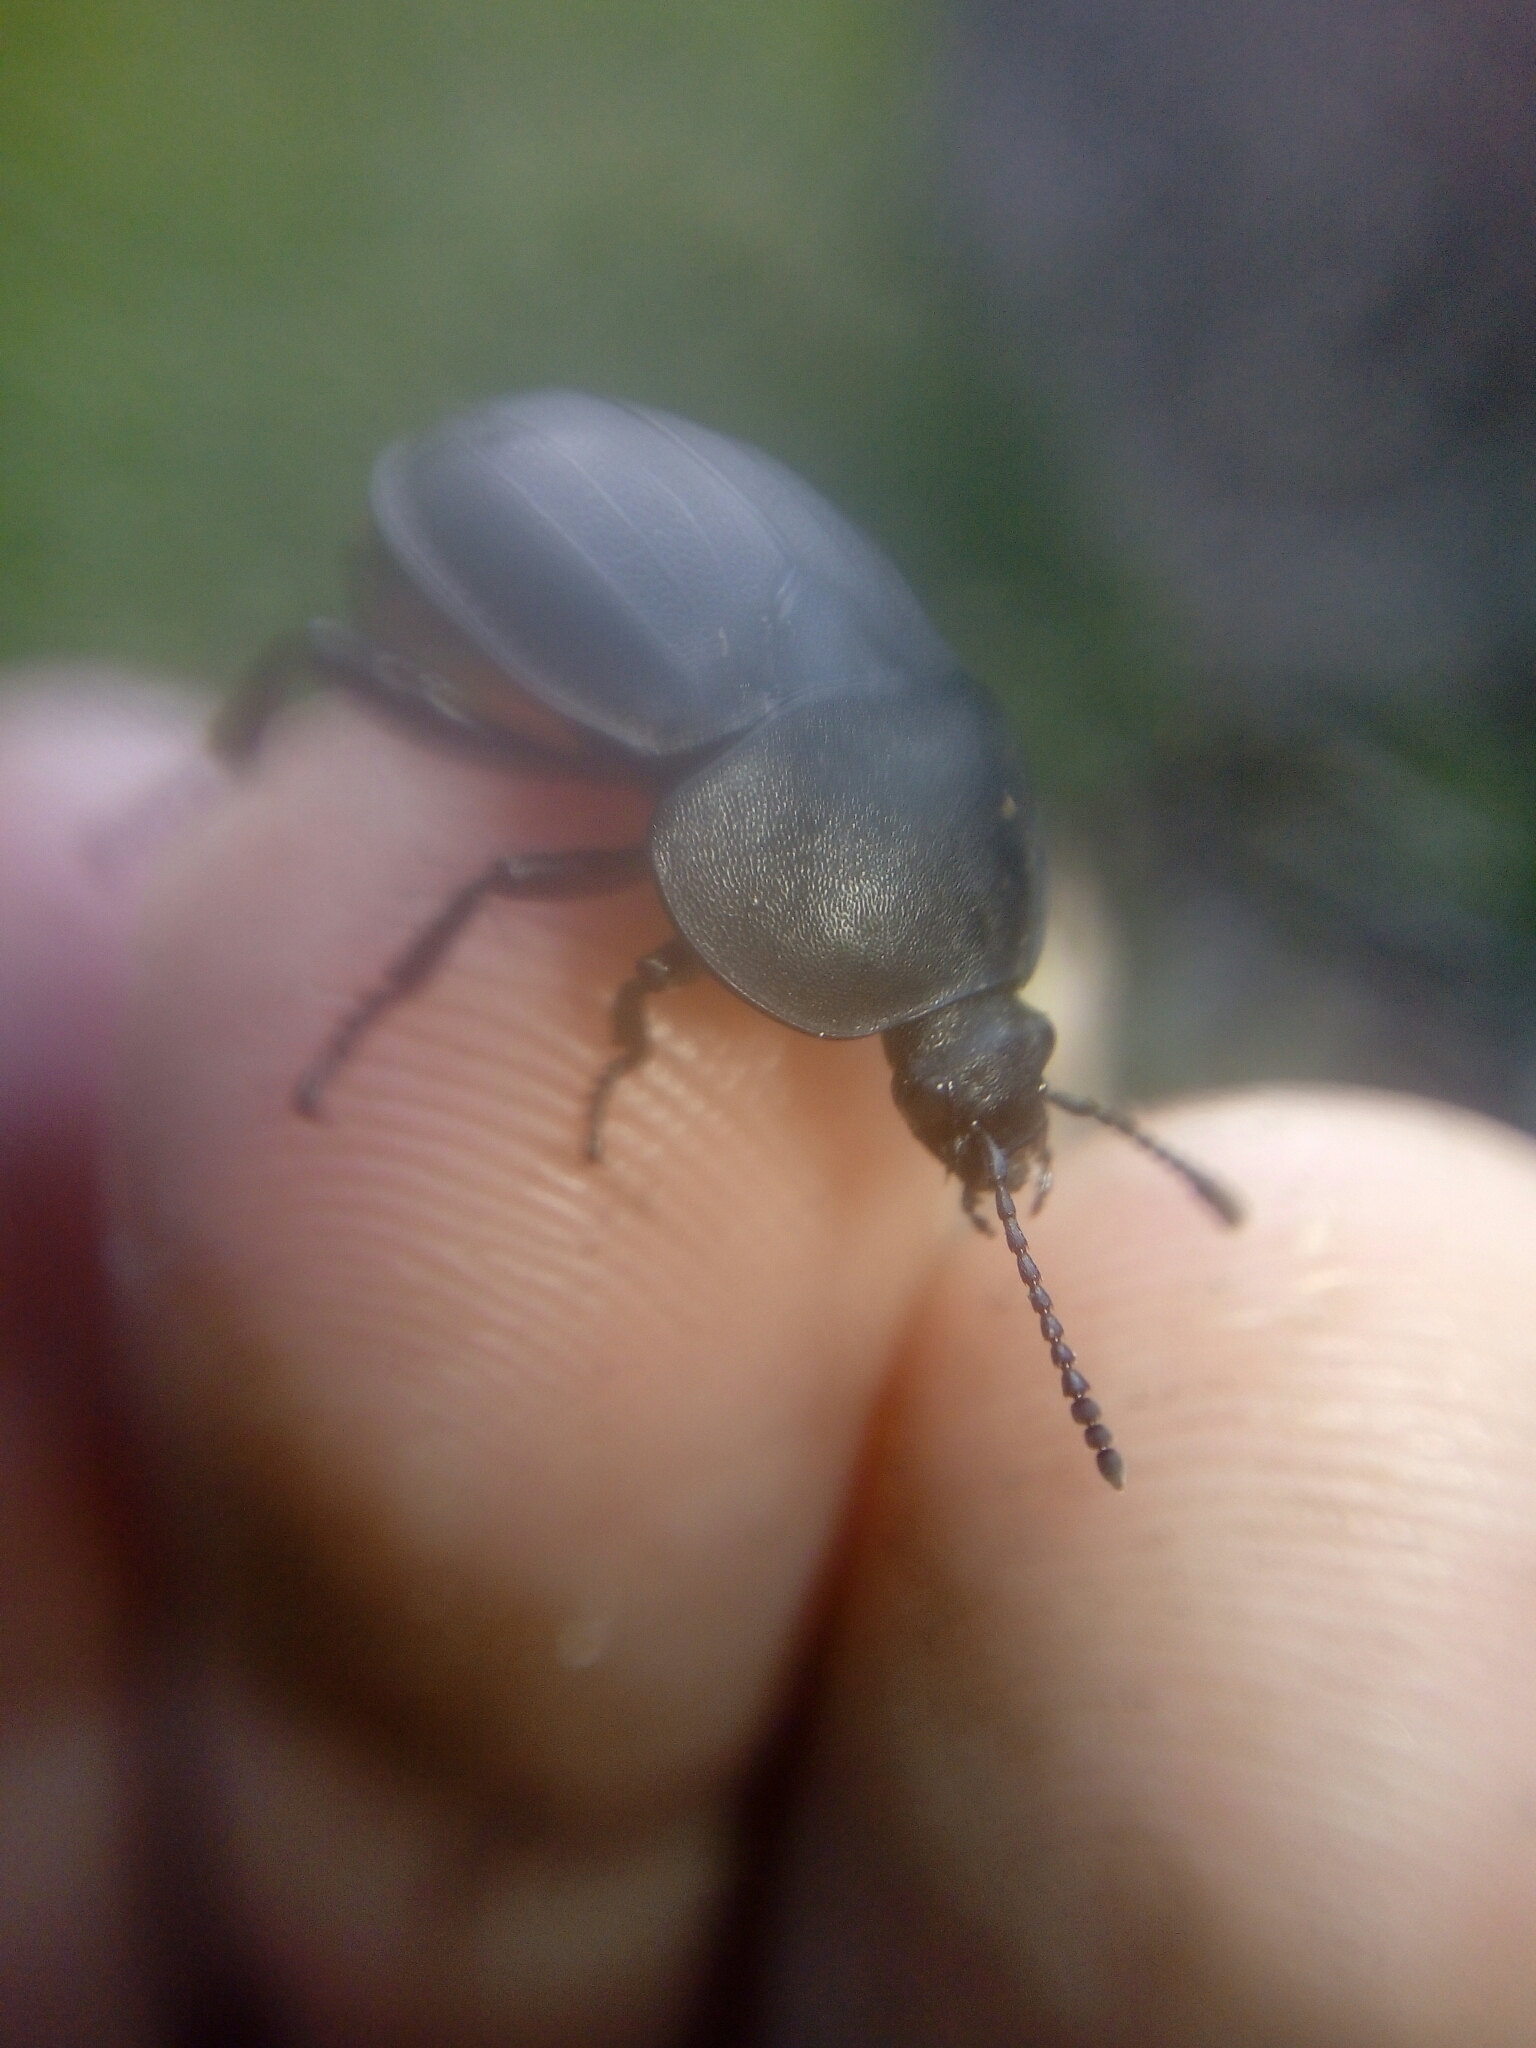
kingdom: Animalia
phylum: Arthropoda
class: Insecta
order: Coleoptera
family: Staphylinidae
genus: Silpha
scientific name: Silpha obscura
